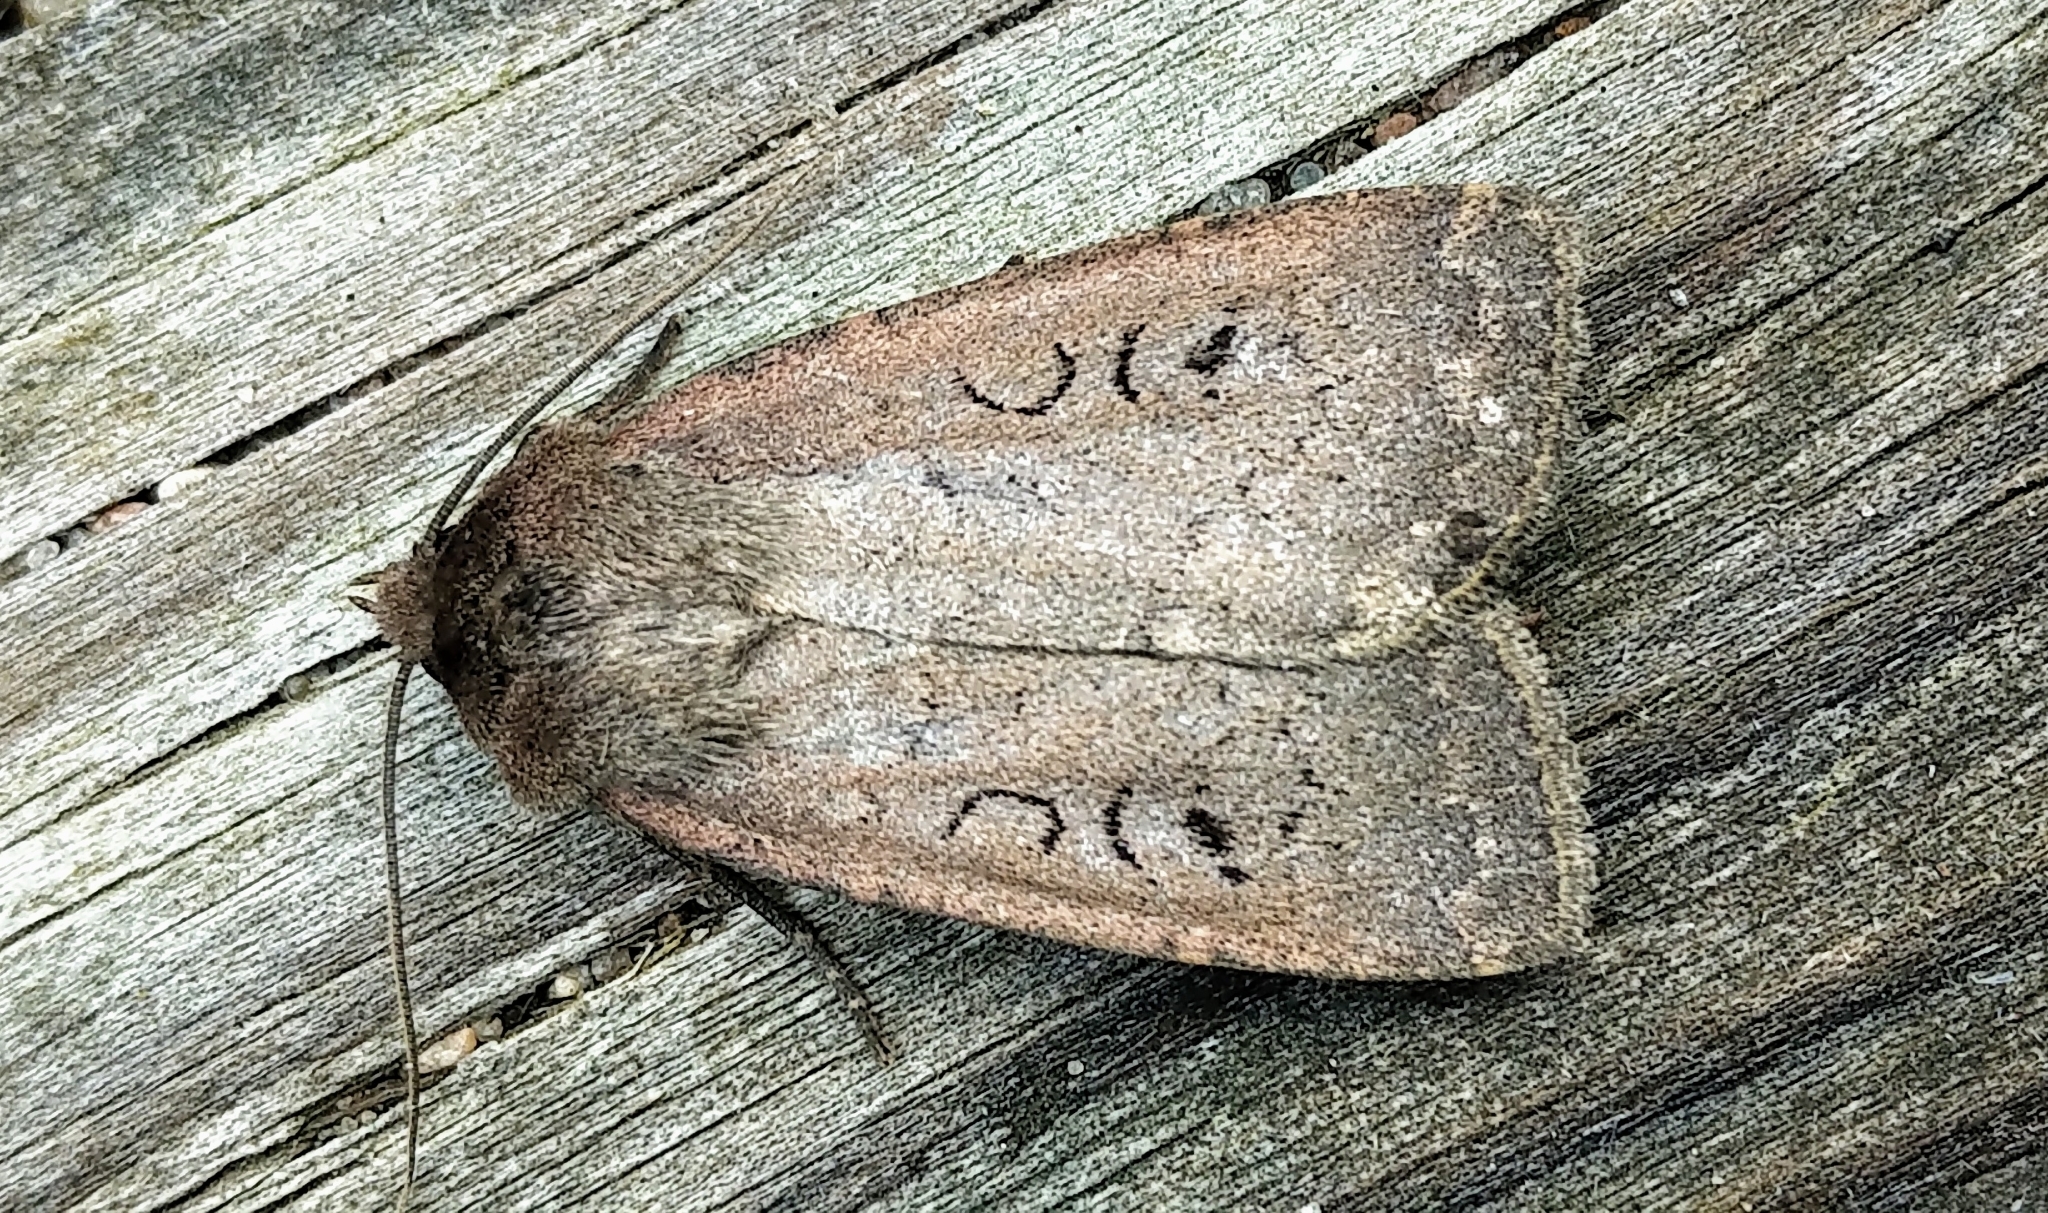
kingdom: Animalia
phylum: Arthropoda
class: Insecta
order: Lepidoptera
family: Noctuidae
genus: Graphiphora
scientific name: Graphiphora augur
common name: Double dart
